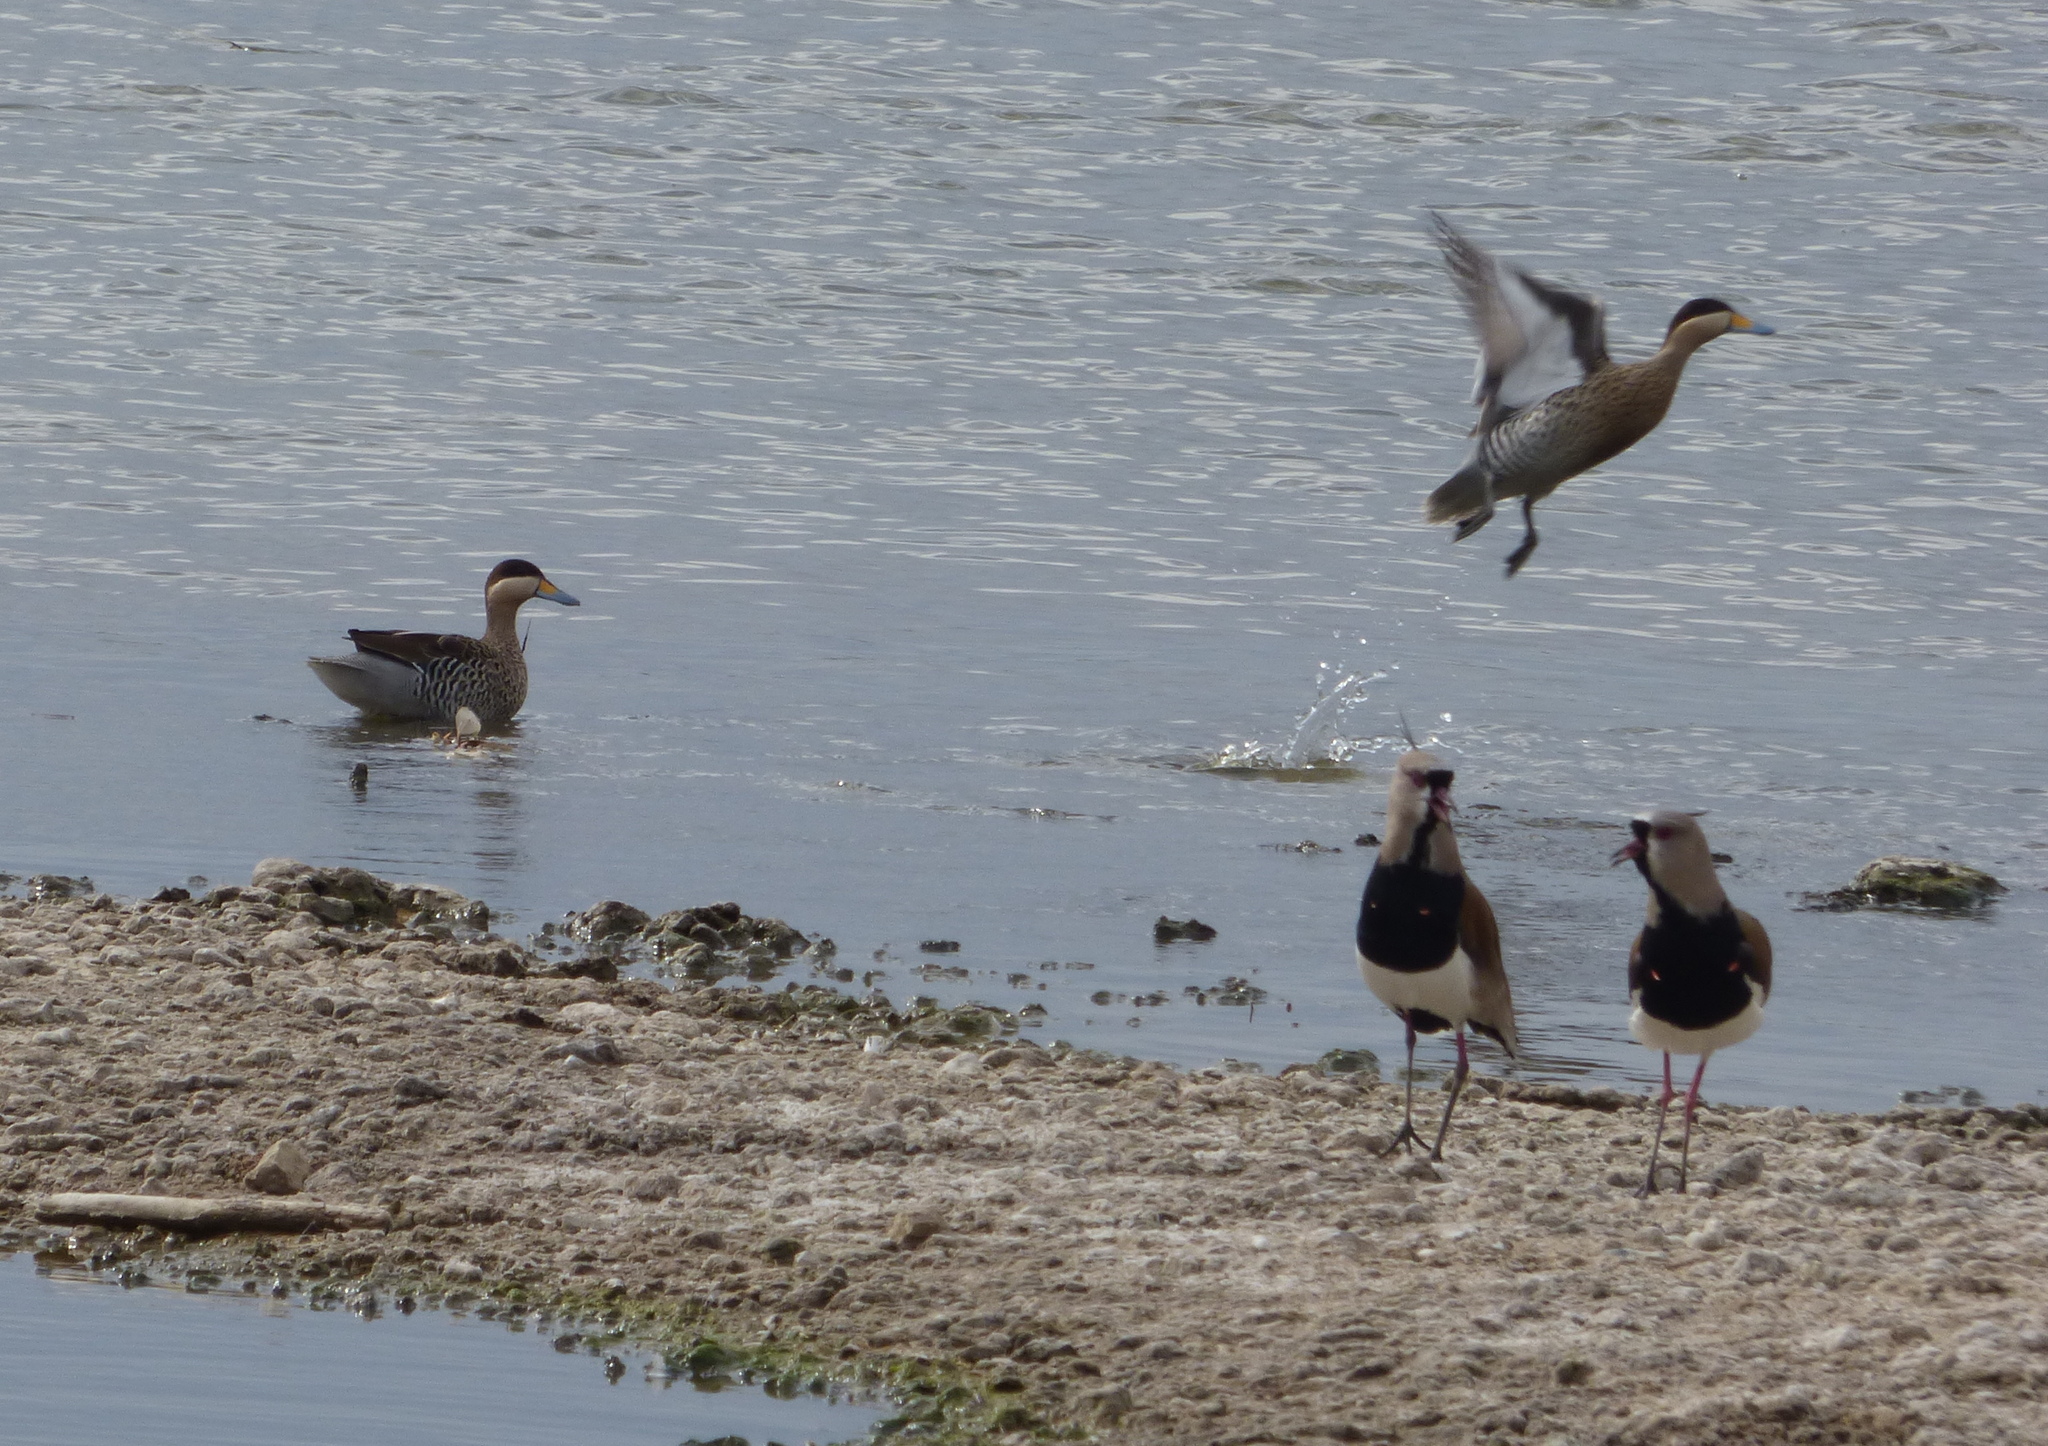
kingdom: Animalia
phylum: Chordata
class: Aves
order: Anseriformes
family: Anatidae
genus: Spatula
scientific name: Spatula versicolor
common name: Silver teal
